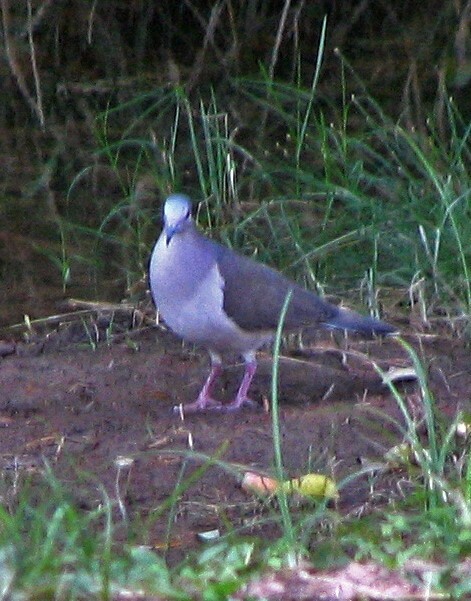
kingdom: Animalia
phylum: Chordata
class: Aves
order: Columbiformes
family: Columbidae
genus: Leptotila
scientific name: Leptotila verreauxi
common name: White-tipped dove
